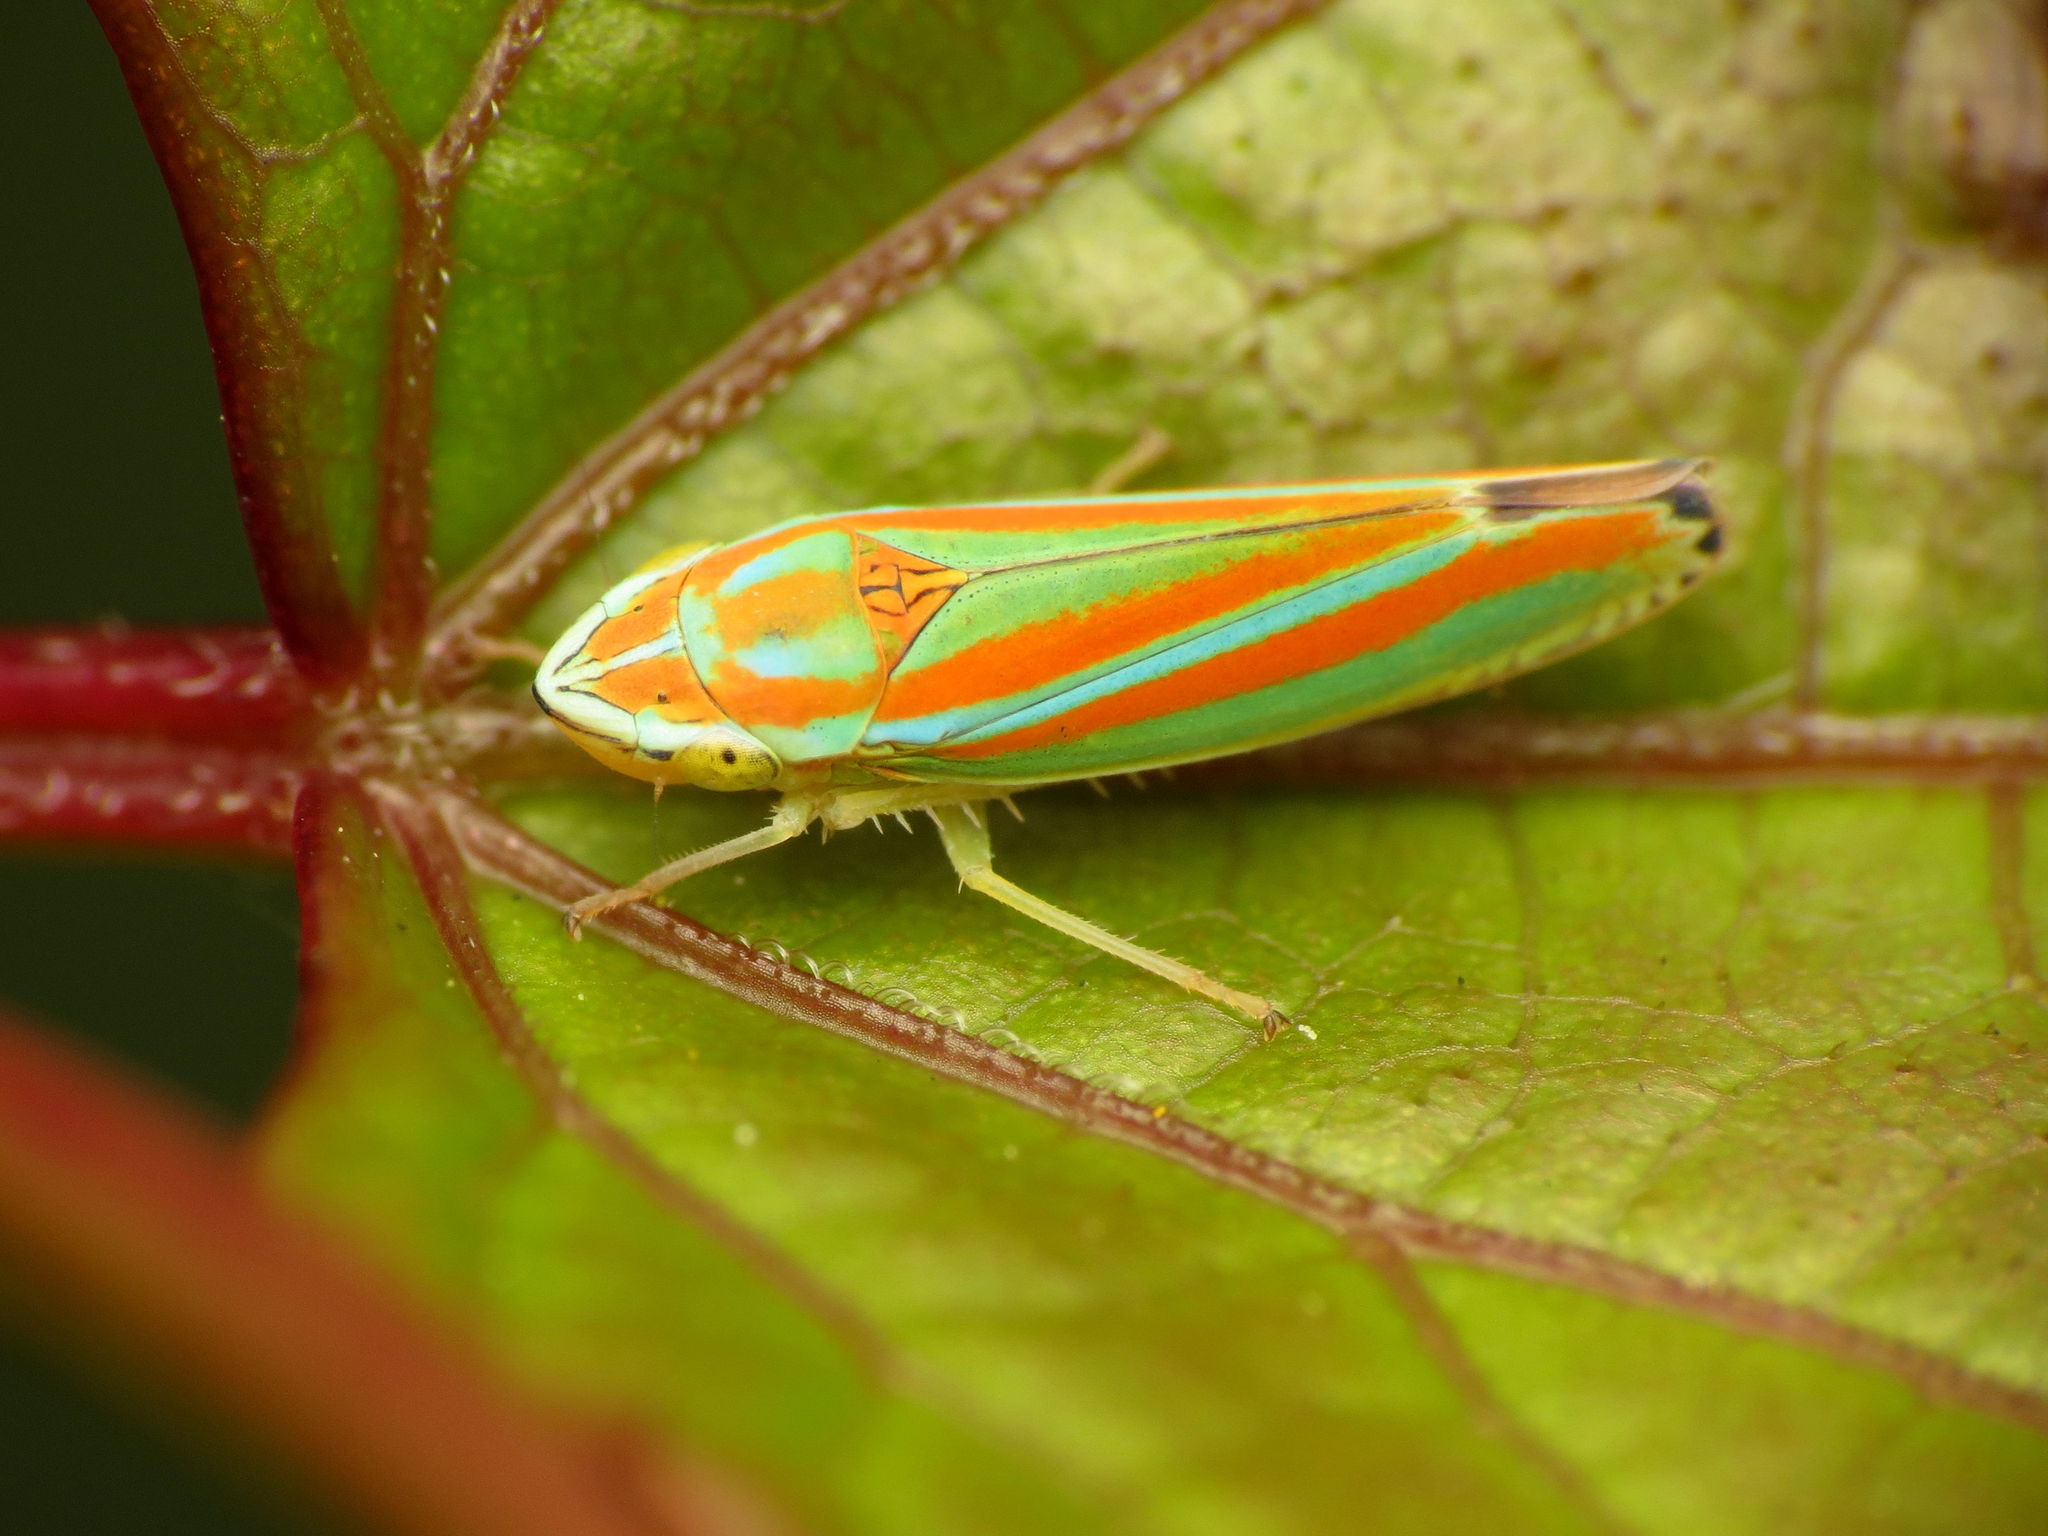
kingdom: Animalia
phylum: Arthropoda
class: Insecta
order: Hemiptera
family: Cicadellidae
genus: Graphocephala
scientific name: Graphocephala versuta
